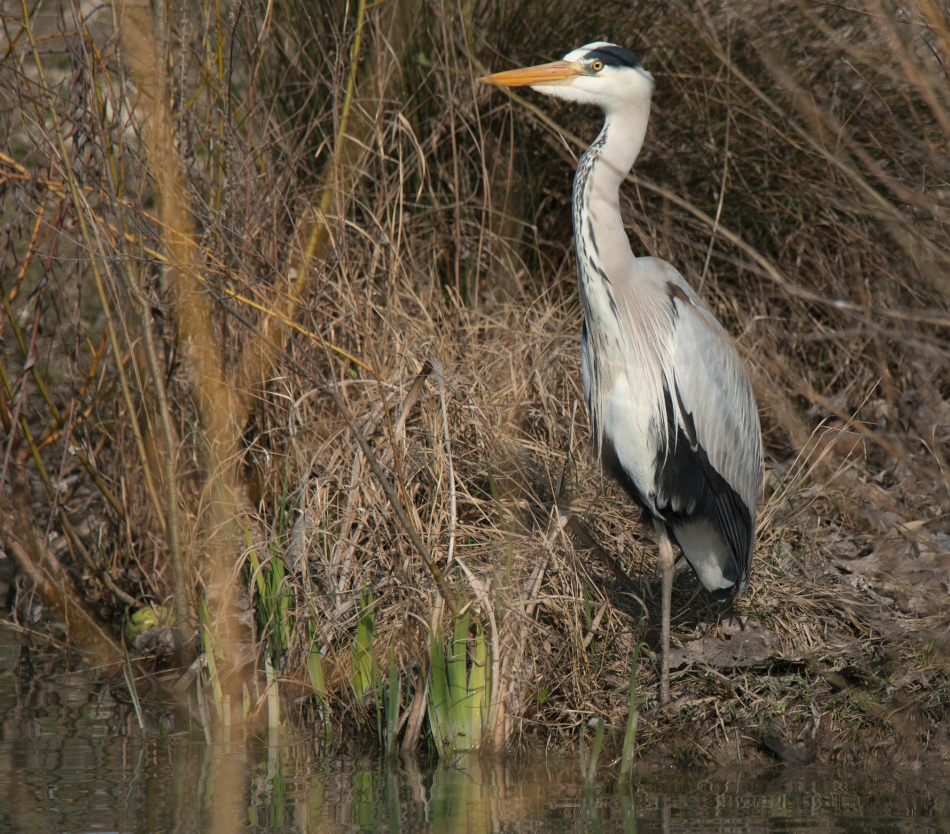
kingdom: Animalia
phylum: Chordata
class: Aves
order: Pelecaniformes
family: Ardeidae
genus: Ardea
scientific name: Ardea cinerea
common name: Grey heron
